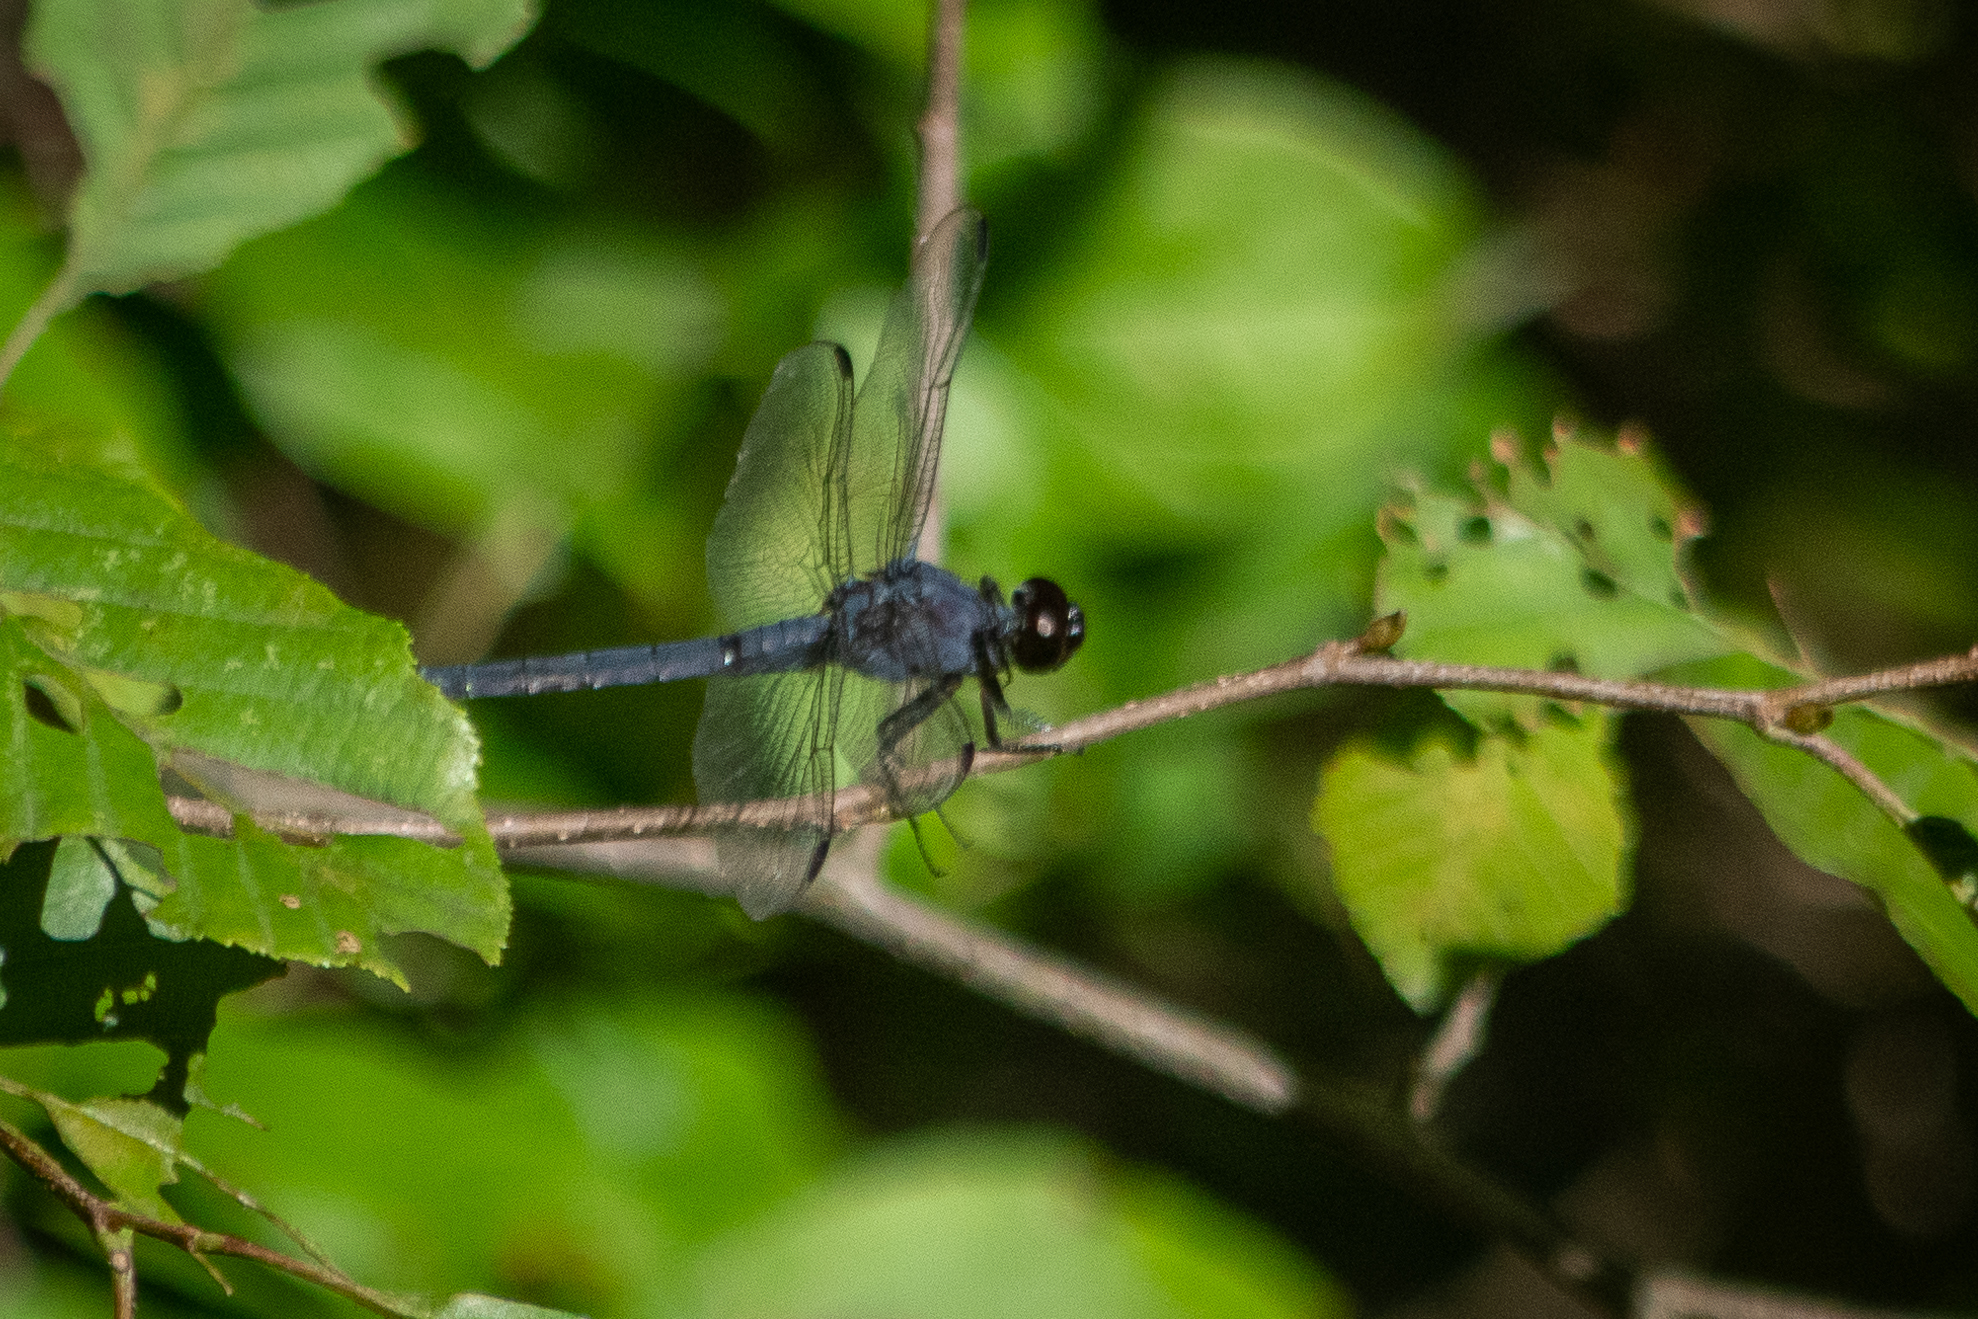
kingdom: Animalia
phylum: Arthropoda
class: Insecta
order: Odonata
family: Libellulidae
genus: Libellula
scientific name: Libellula incesta
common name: Slaty skimmer
